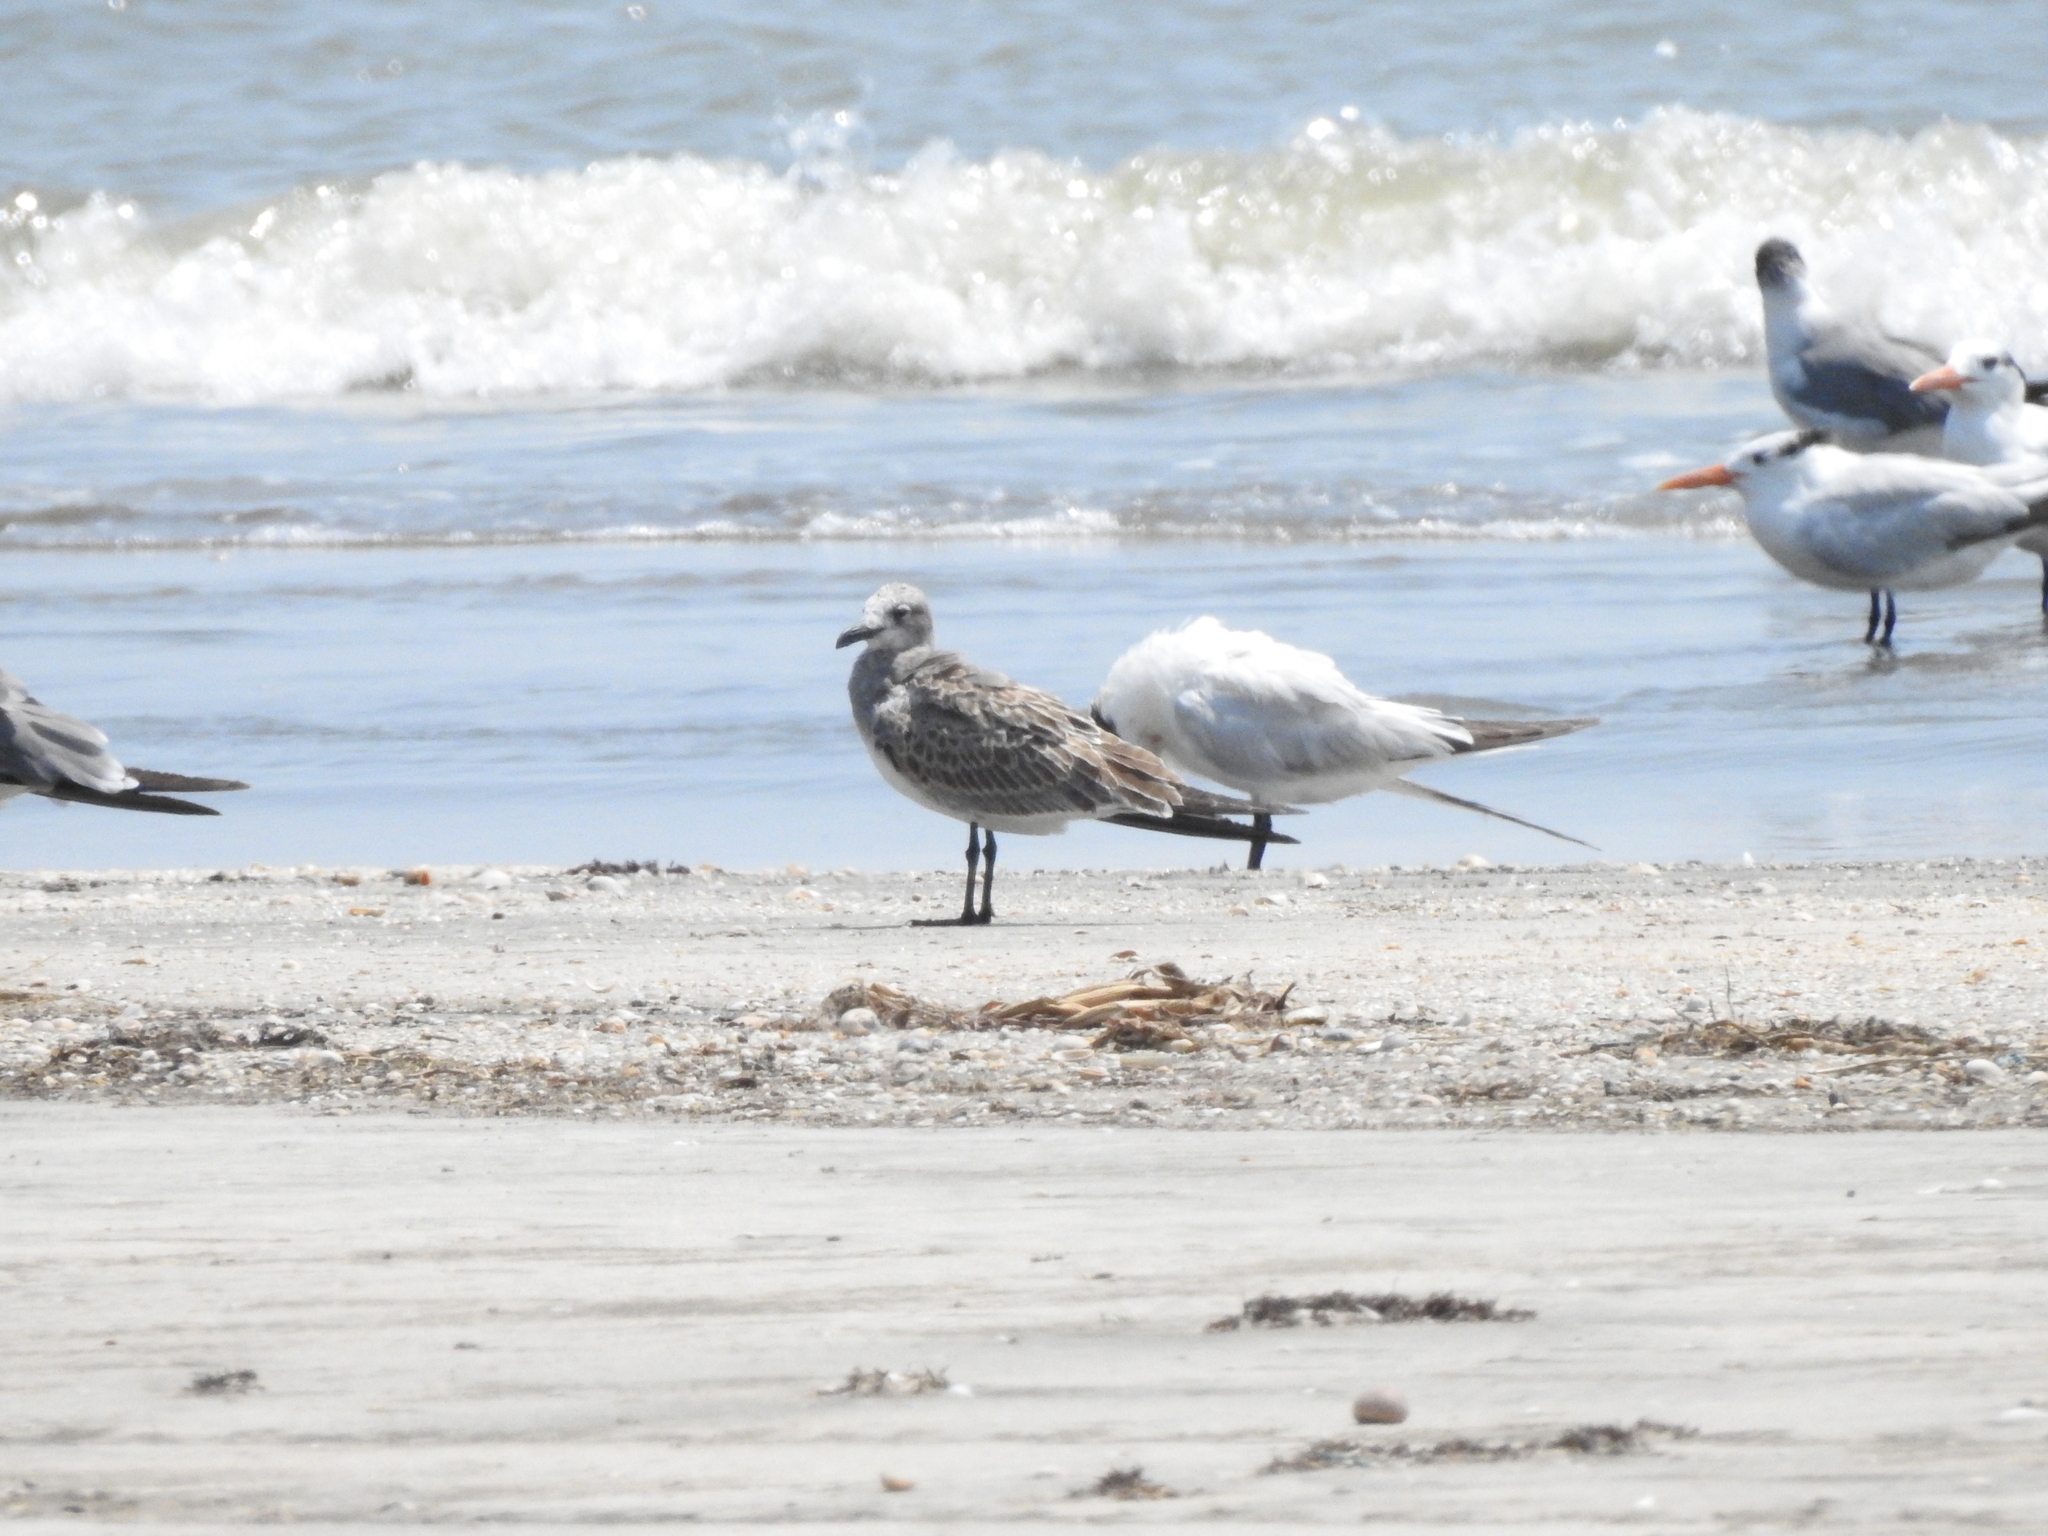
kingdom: Animalia
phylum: Chordata
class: Aves
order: Charadriiformes
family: Laridae
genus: Leucophaeus
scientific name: Leucophaeus atricilla
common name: Laughing gull
